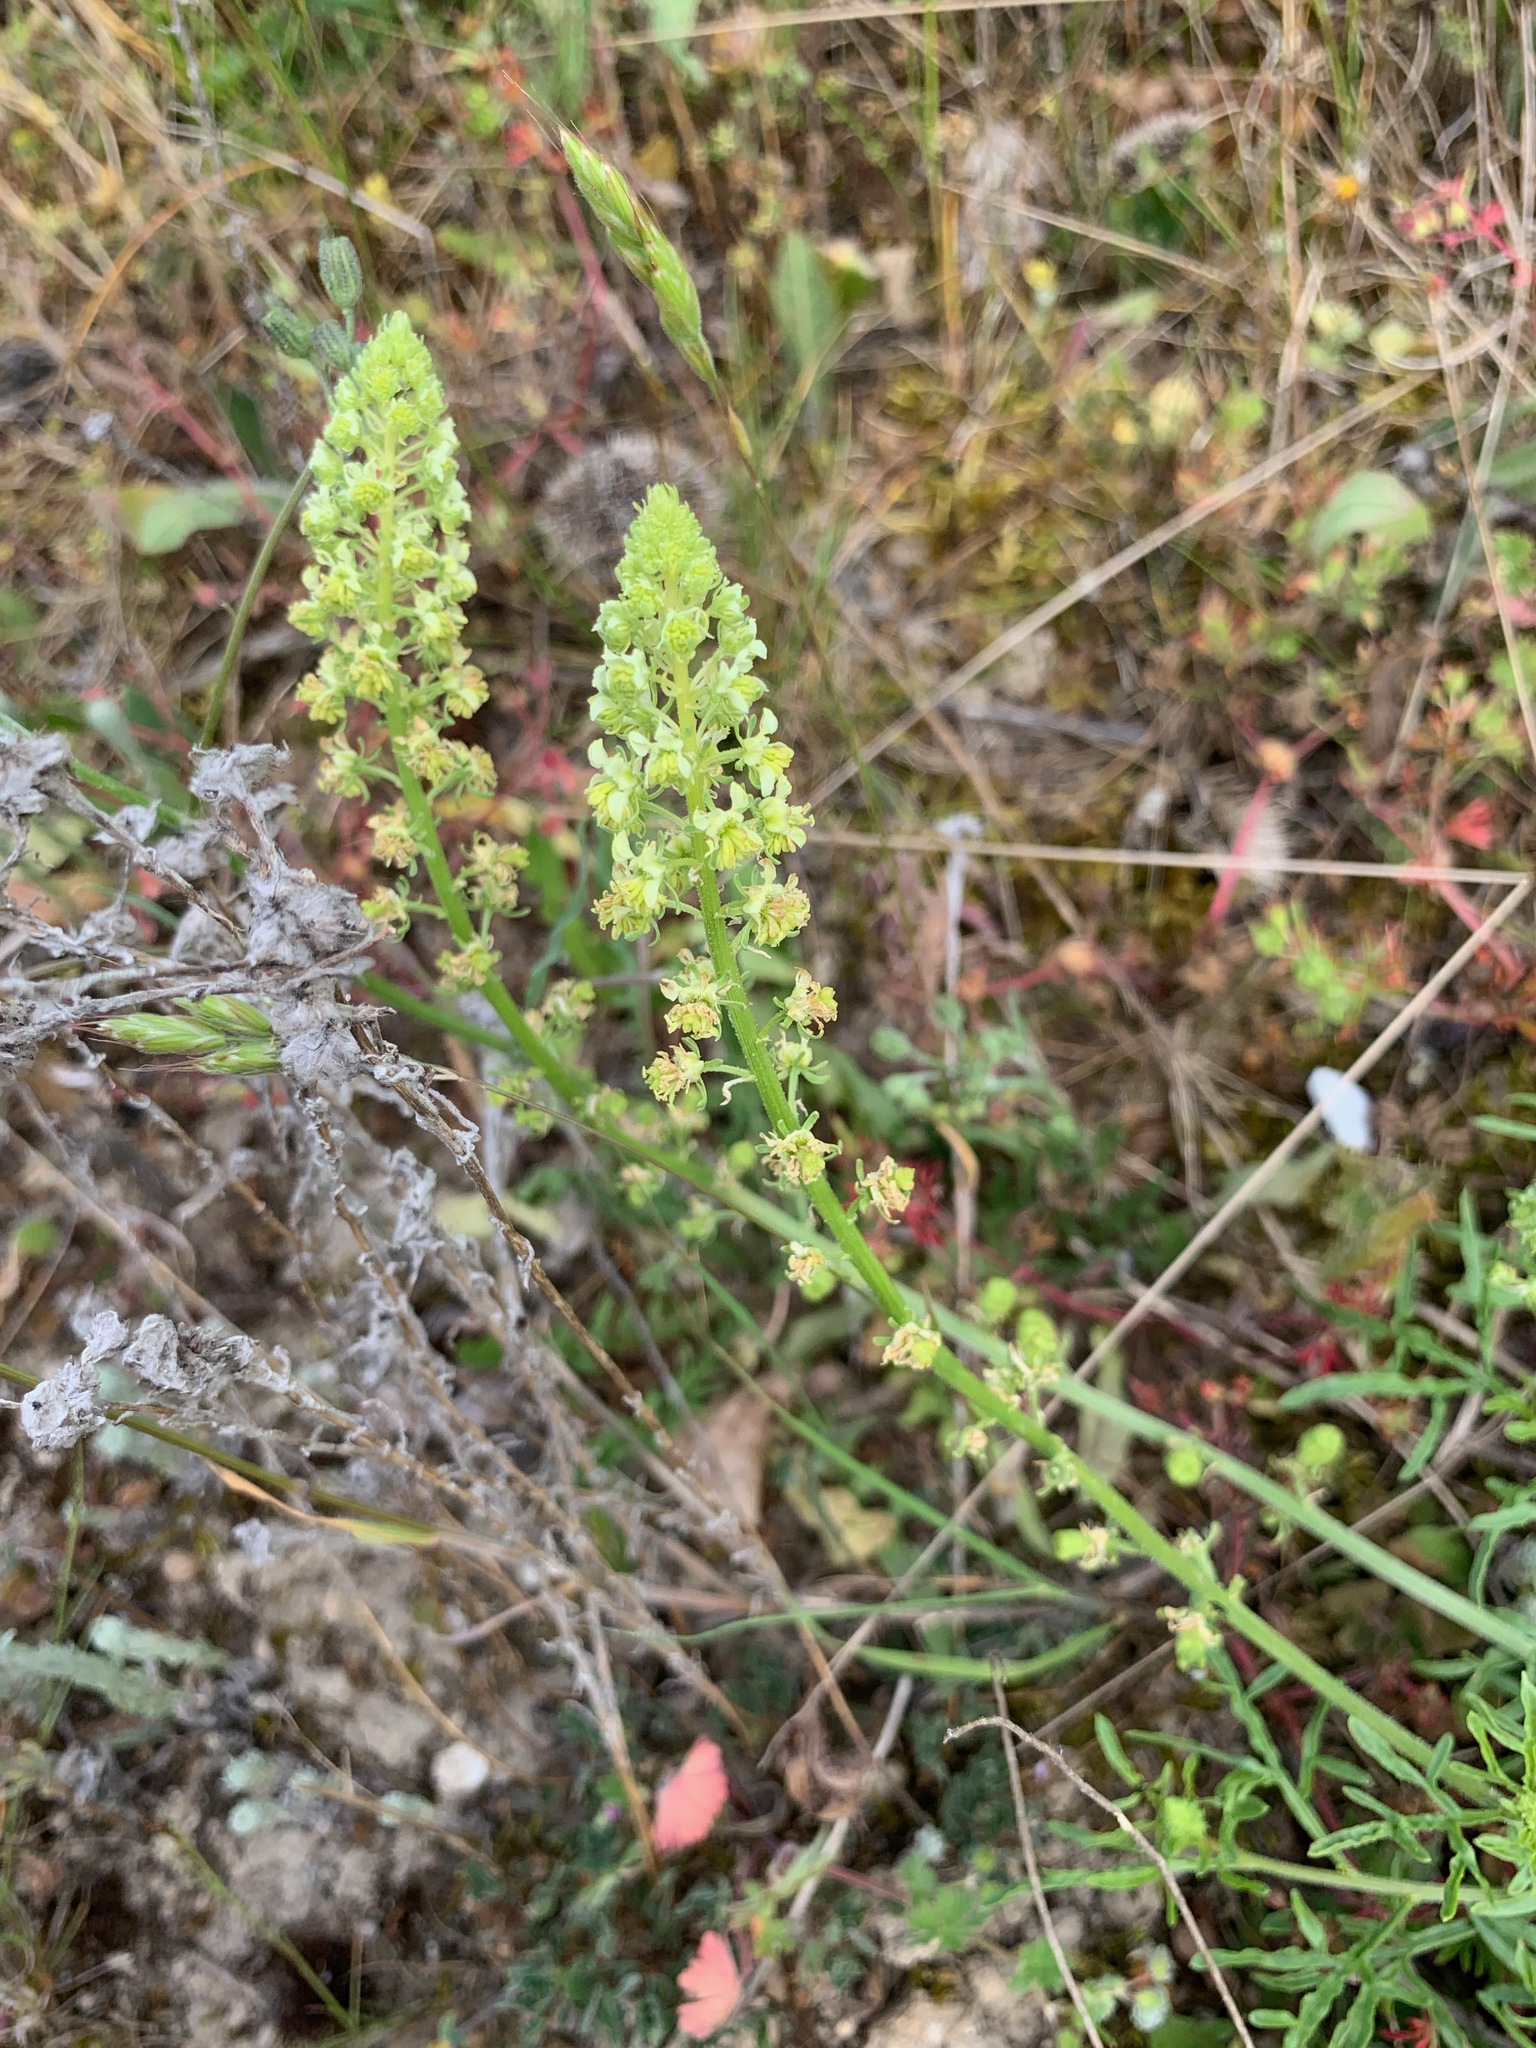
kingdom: Plantae
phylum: Tracheophyta
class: Magnoliopsida
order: Brassicales
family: Resedaceae
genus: Reseda
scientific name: Reseda lutea
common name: Wild mignonette
